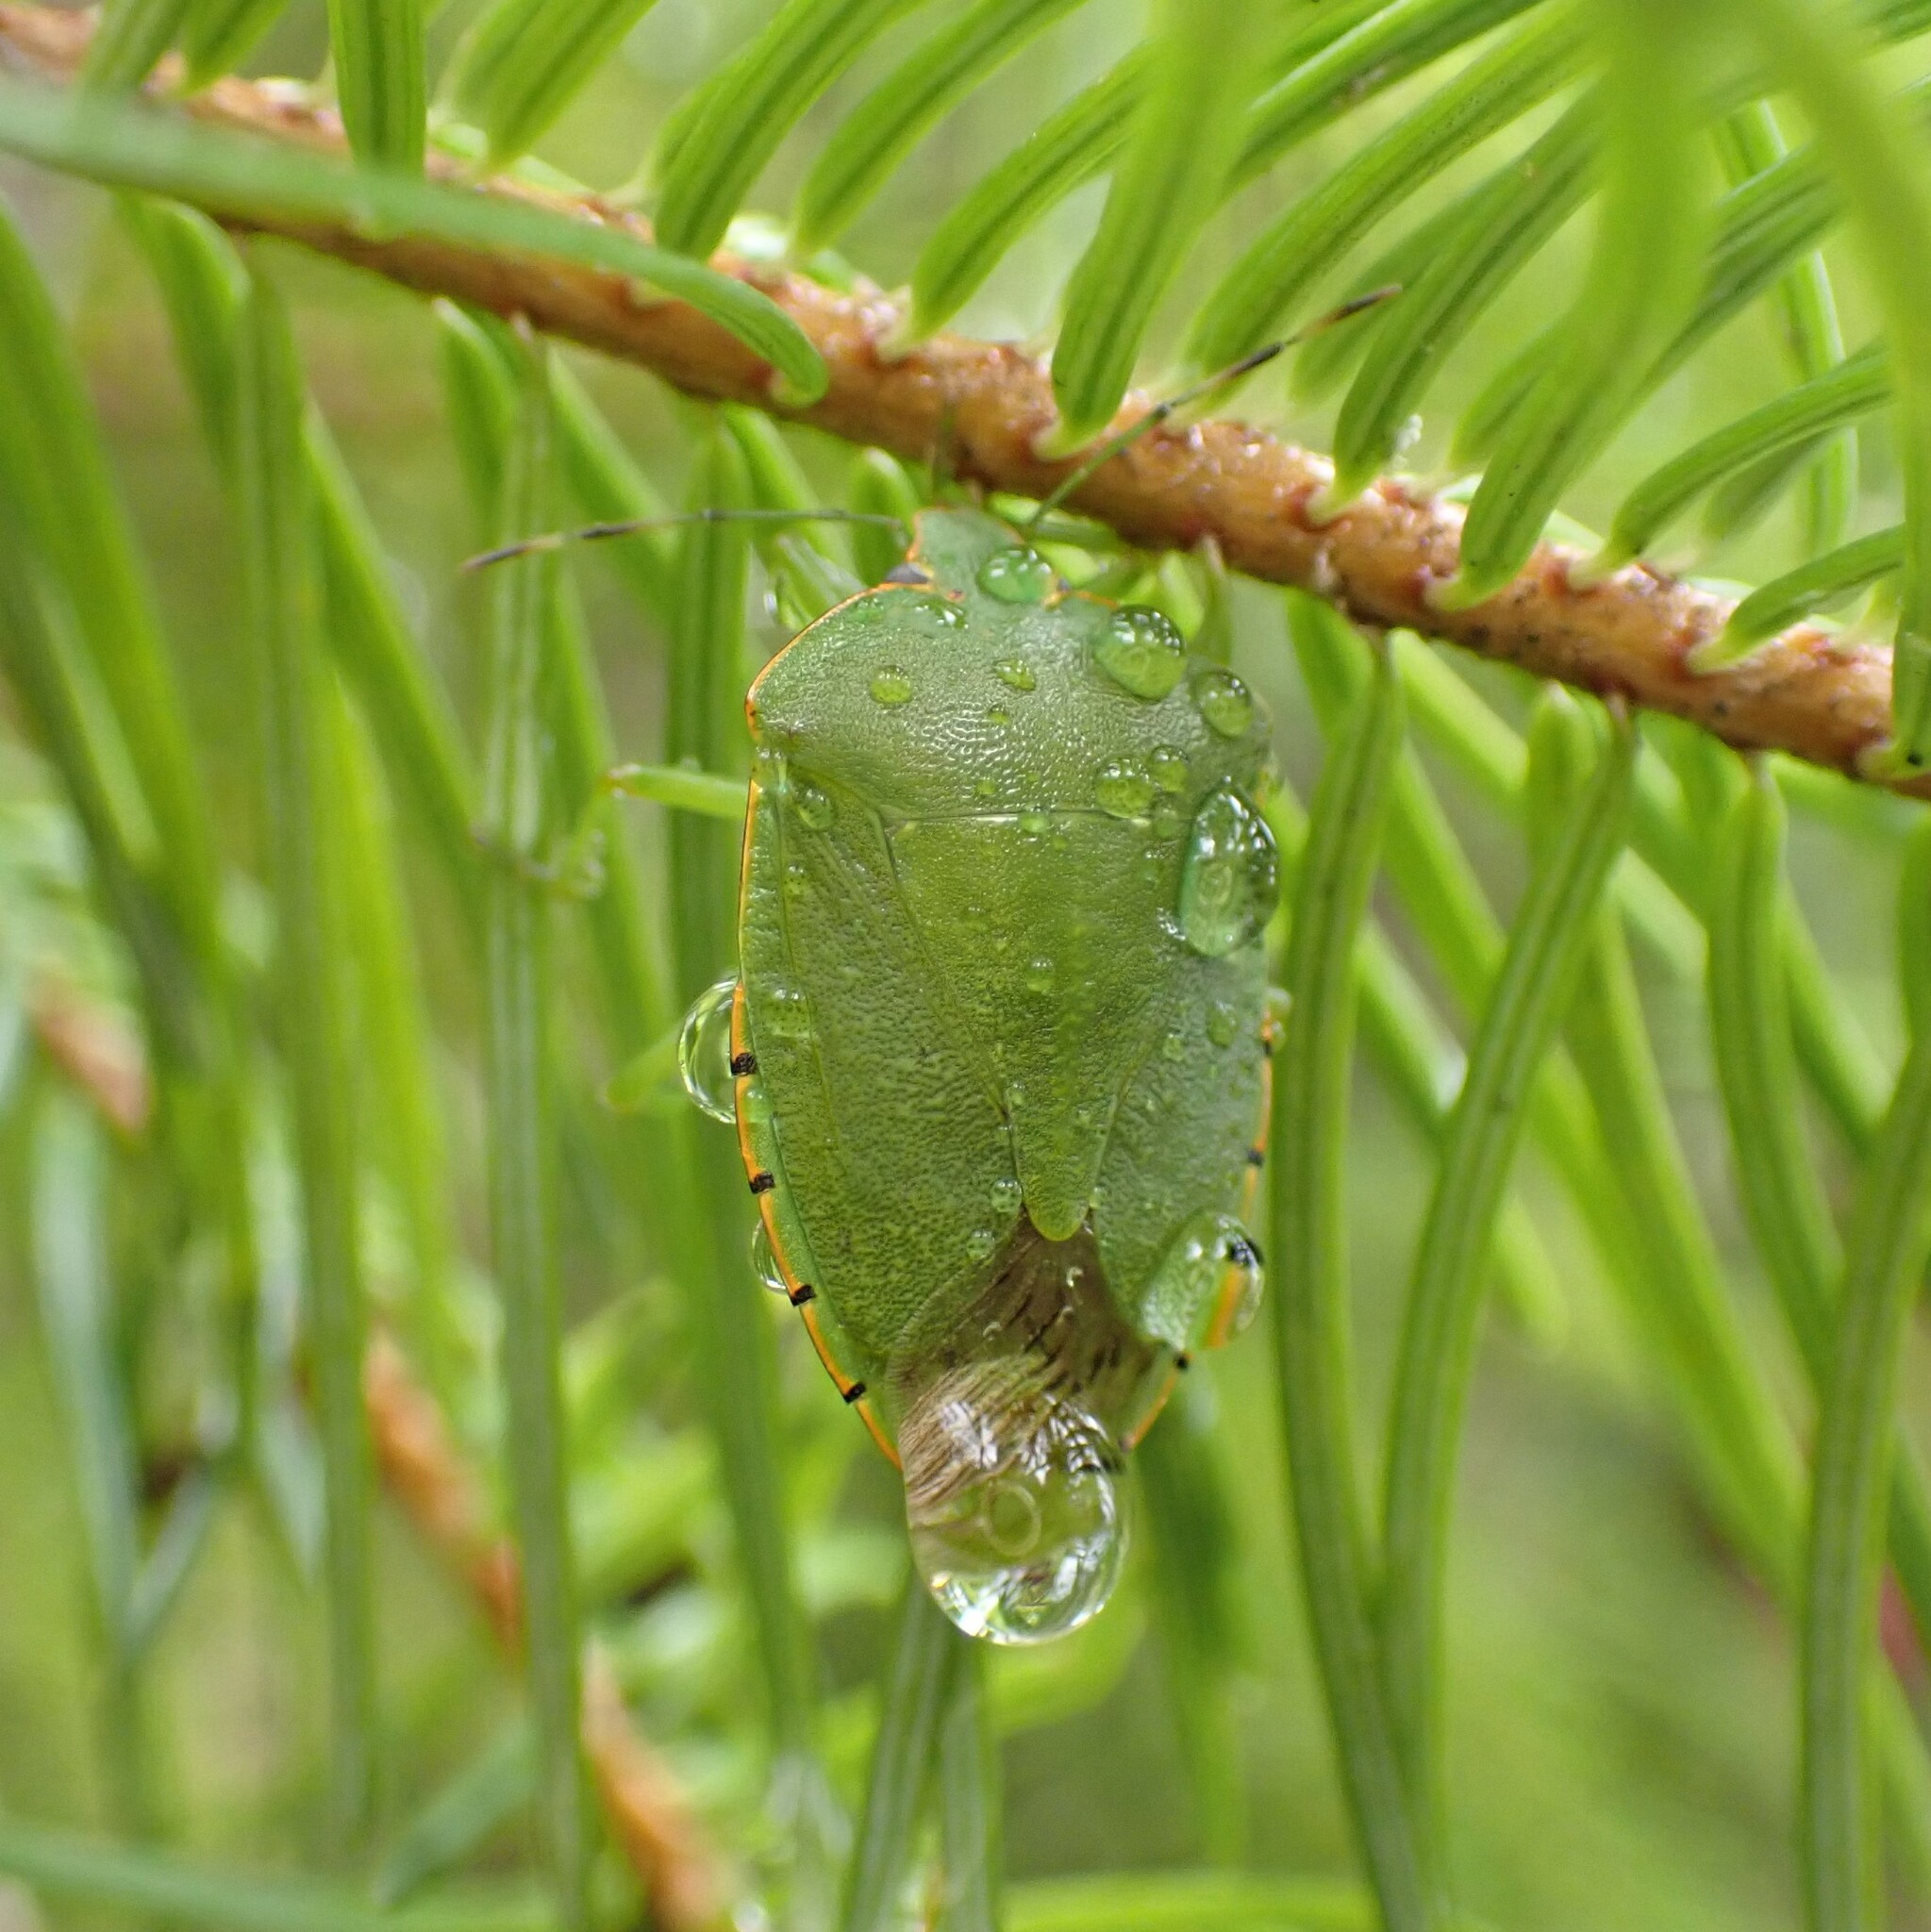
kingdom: Animalia
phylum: Arthropoda
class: Insecta
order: Hemiptera
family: Pentatomidae
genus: Chinavia
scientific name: Chinavia hilaris
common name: Green stink bug
